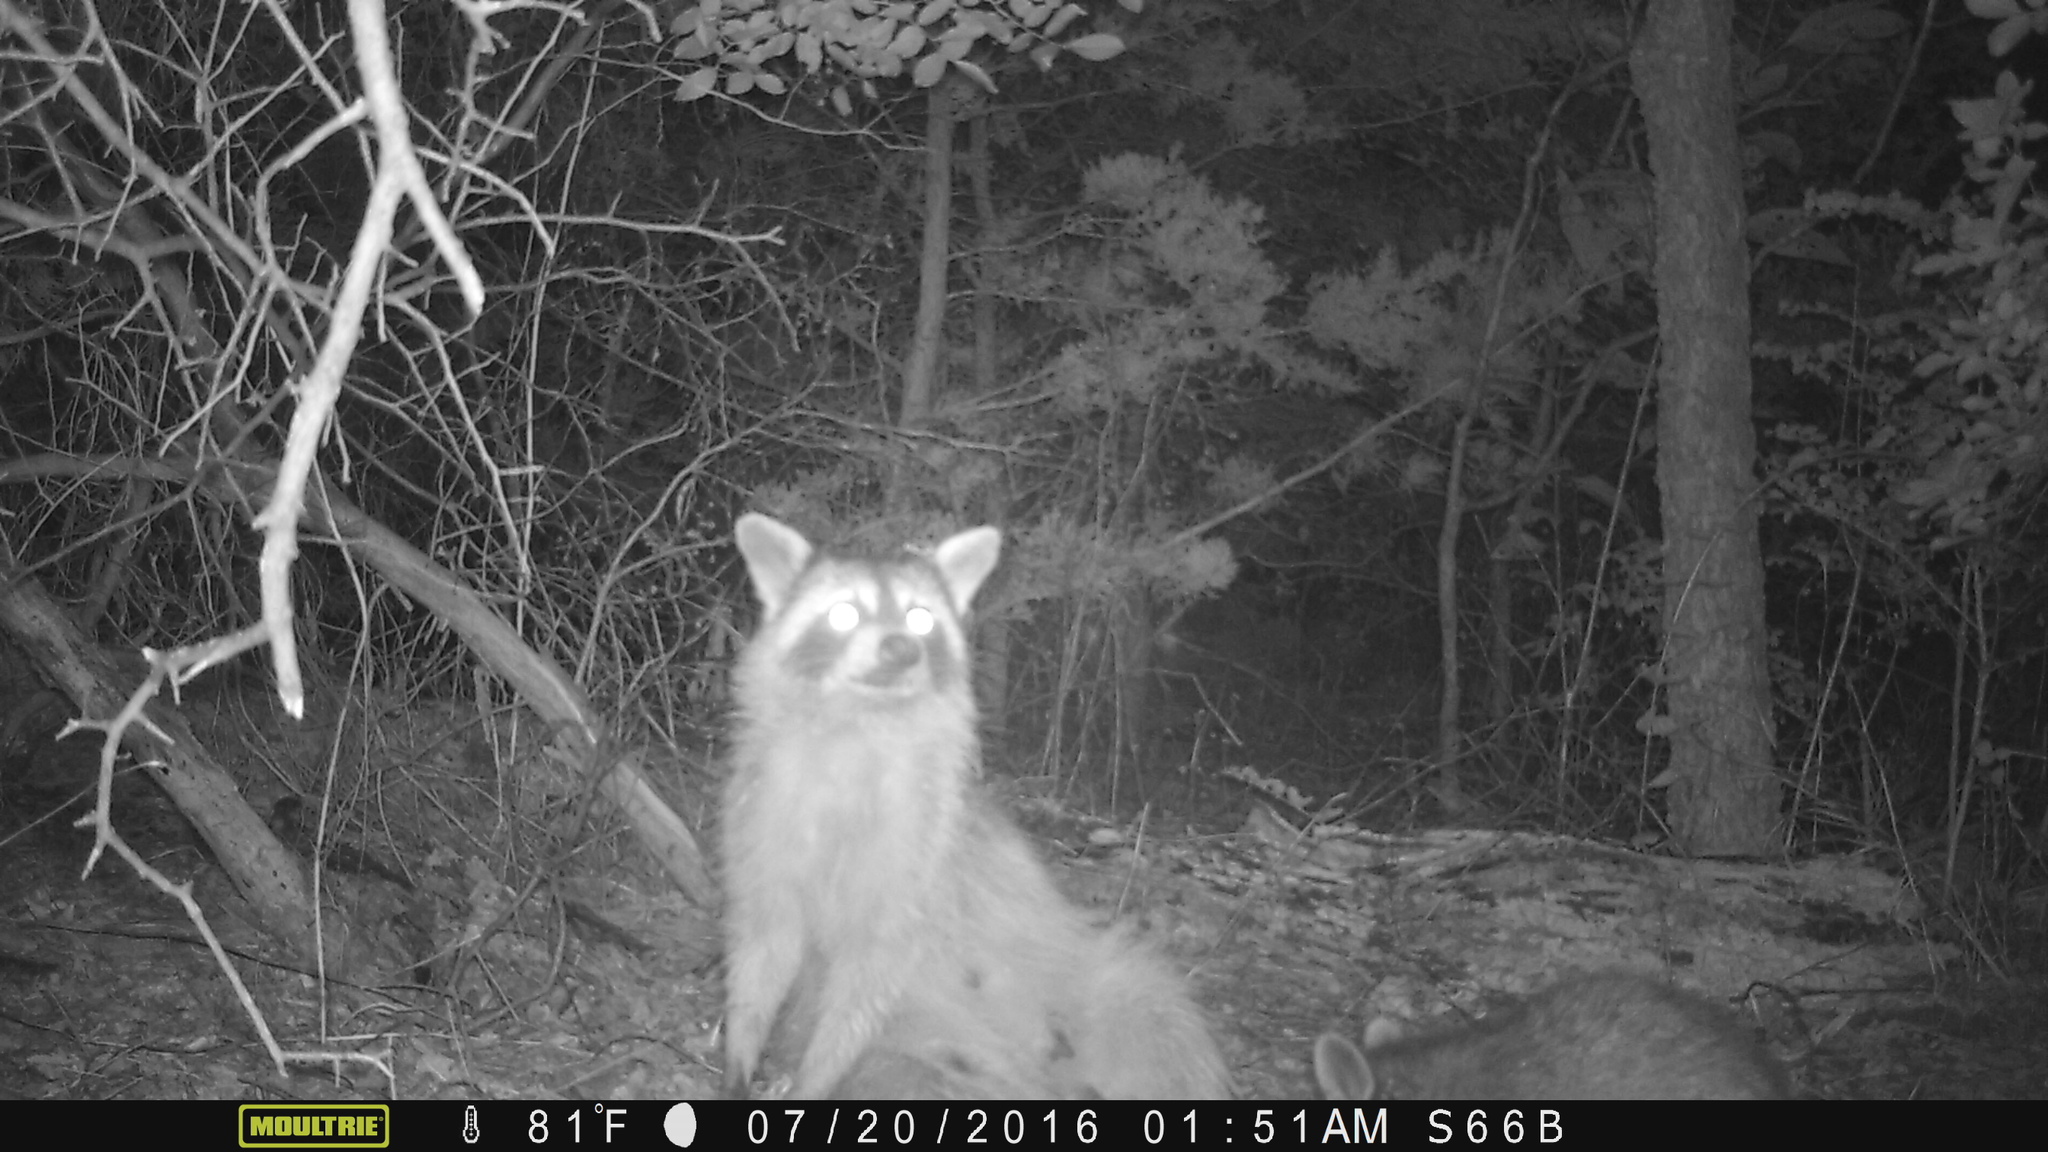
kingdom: Animalia
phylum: Chordata
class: Mammalia
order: Carnivora
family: Procyonidae
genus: Procyon
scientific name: Procyon lotor
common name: Raccoon
